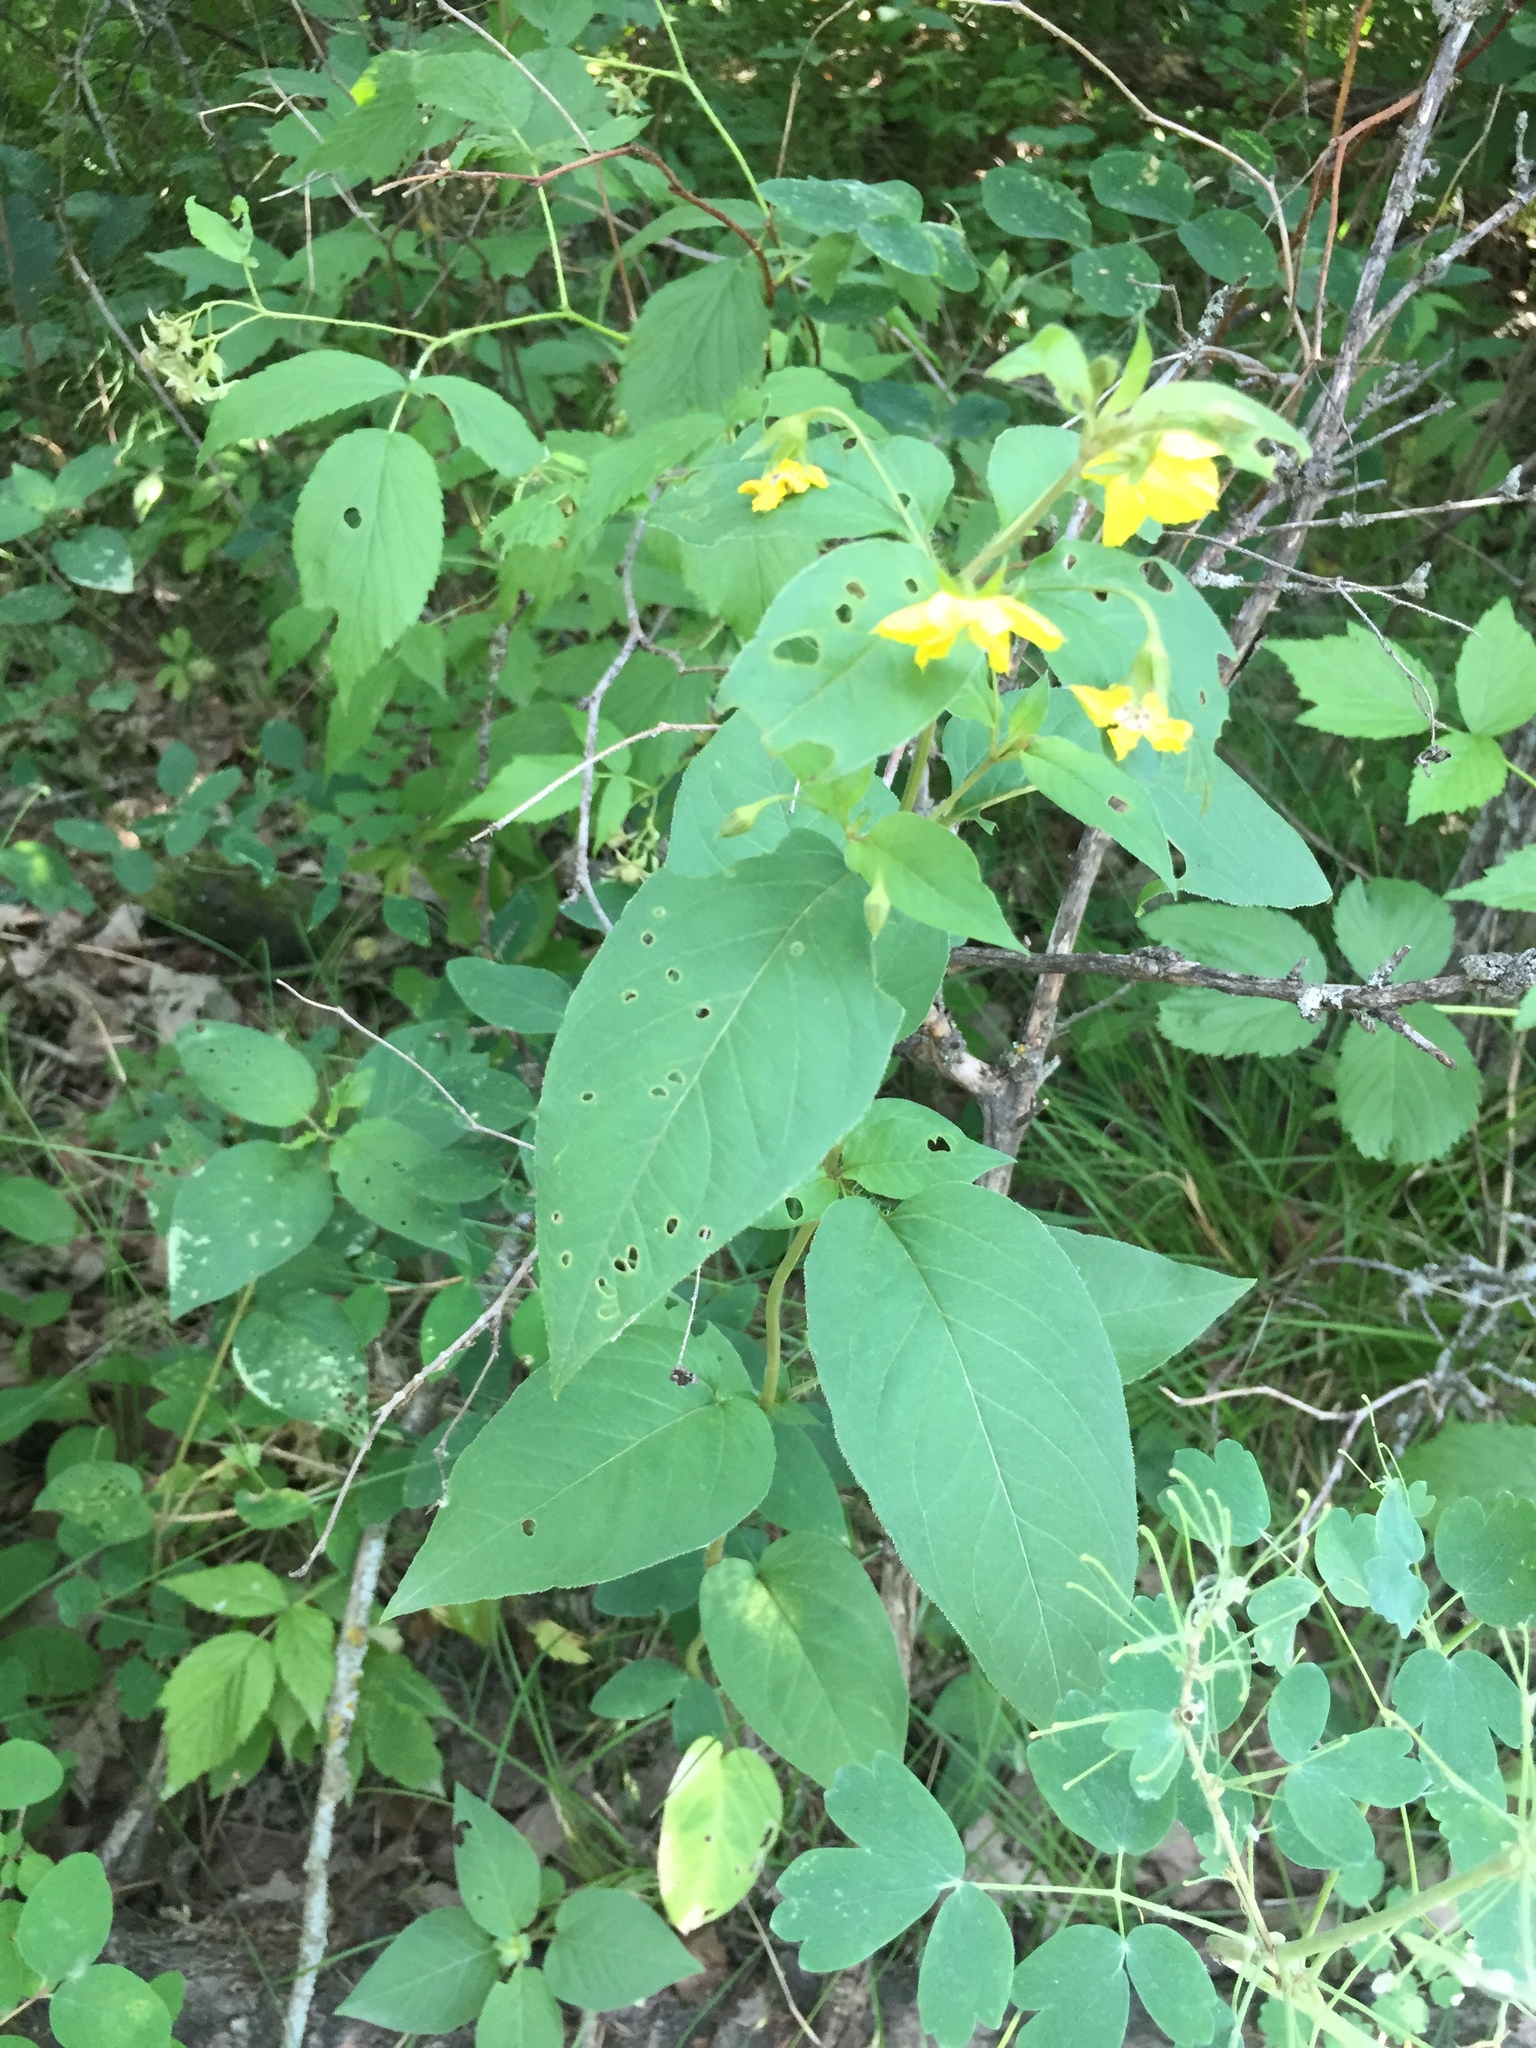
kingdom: Plantae
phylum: Tracheophyta
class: Magnoliopsida
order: Ericales
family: Primulaceae
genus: Lysimachia
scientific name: Lysimachia ciliata
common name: Fringed loosestrife
